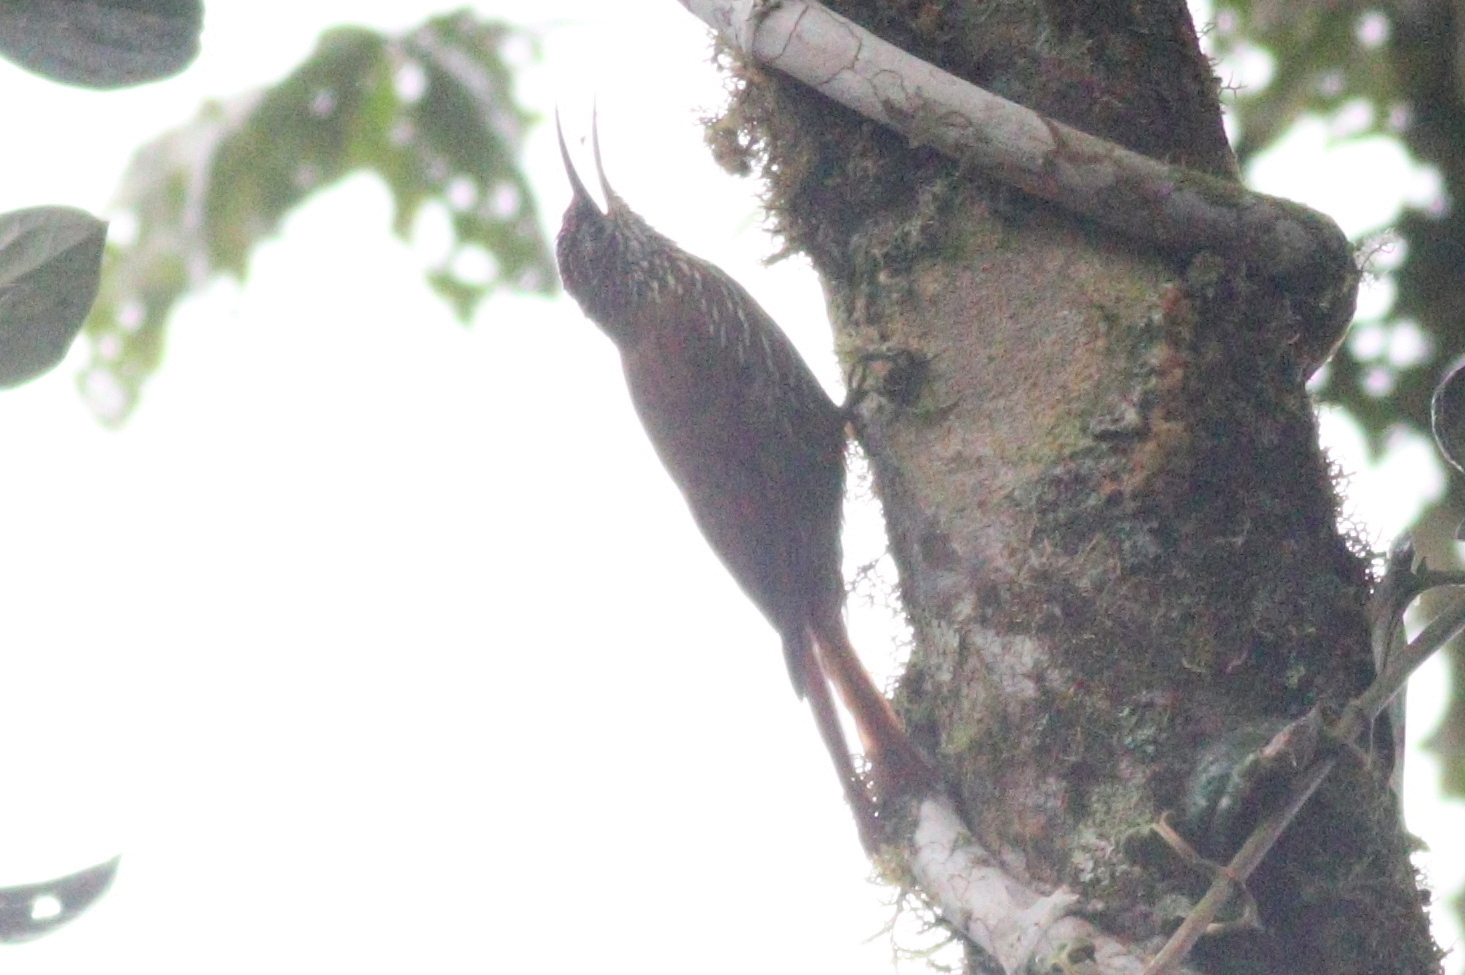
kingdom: Animalia
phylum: Chordata
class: Aves
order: Passeriformes
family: Furnariidae
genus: Lepidocolaptes
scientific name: Lepidocolaptes lacrymiger
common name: Montane woodcreeper
